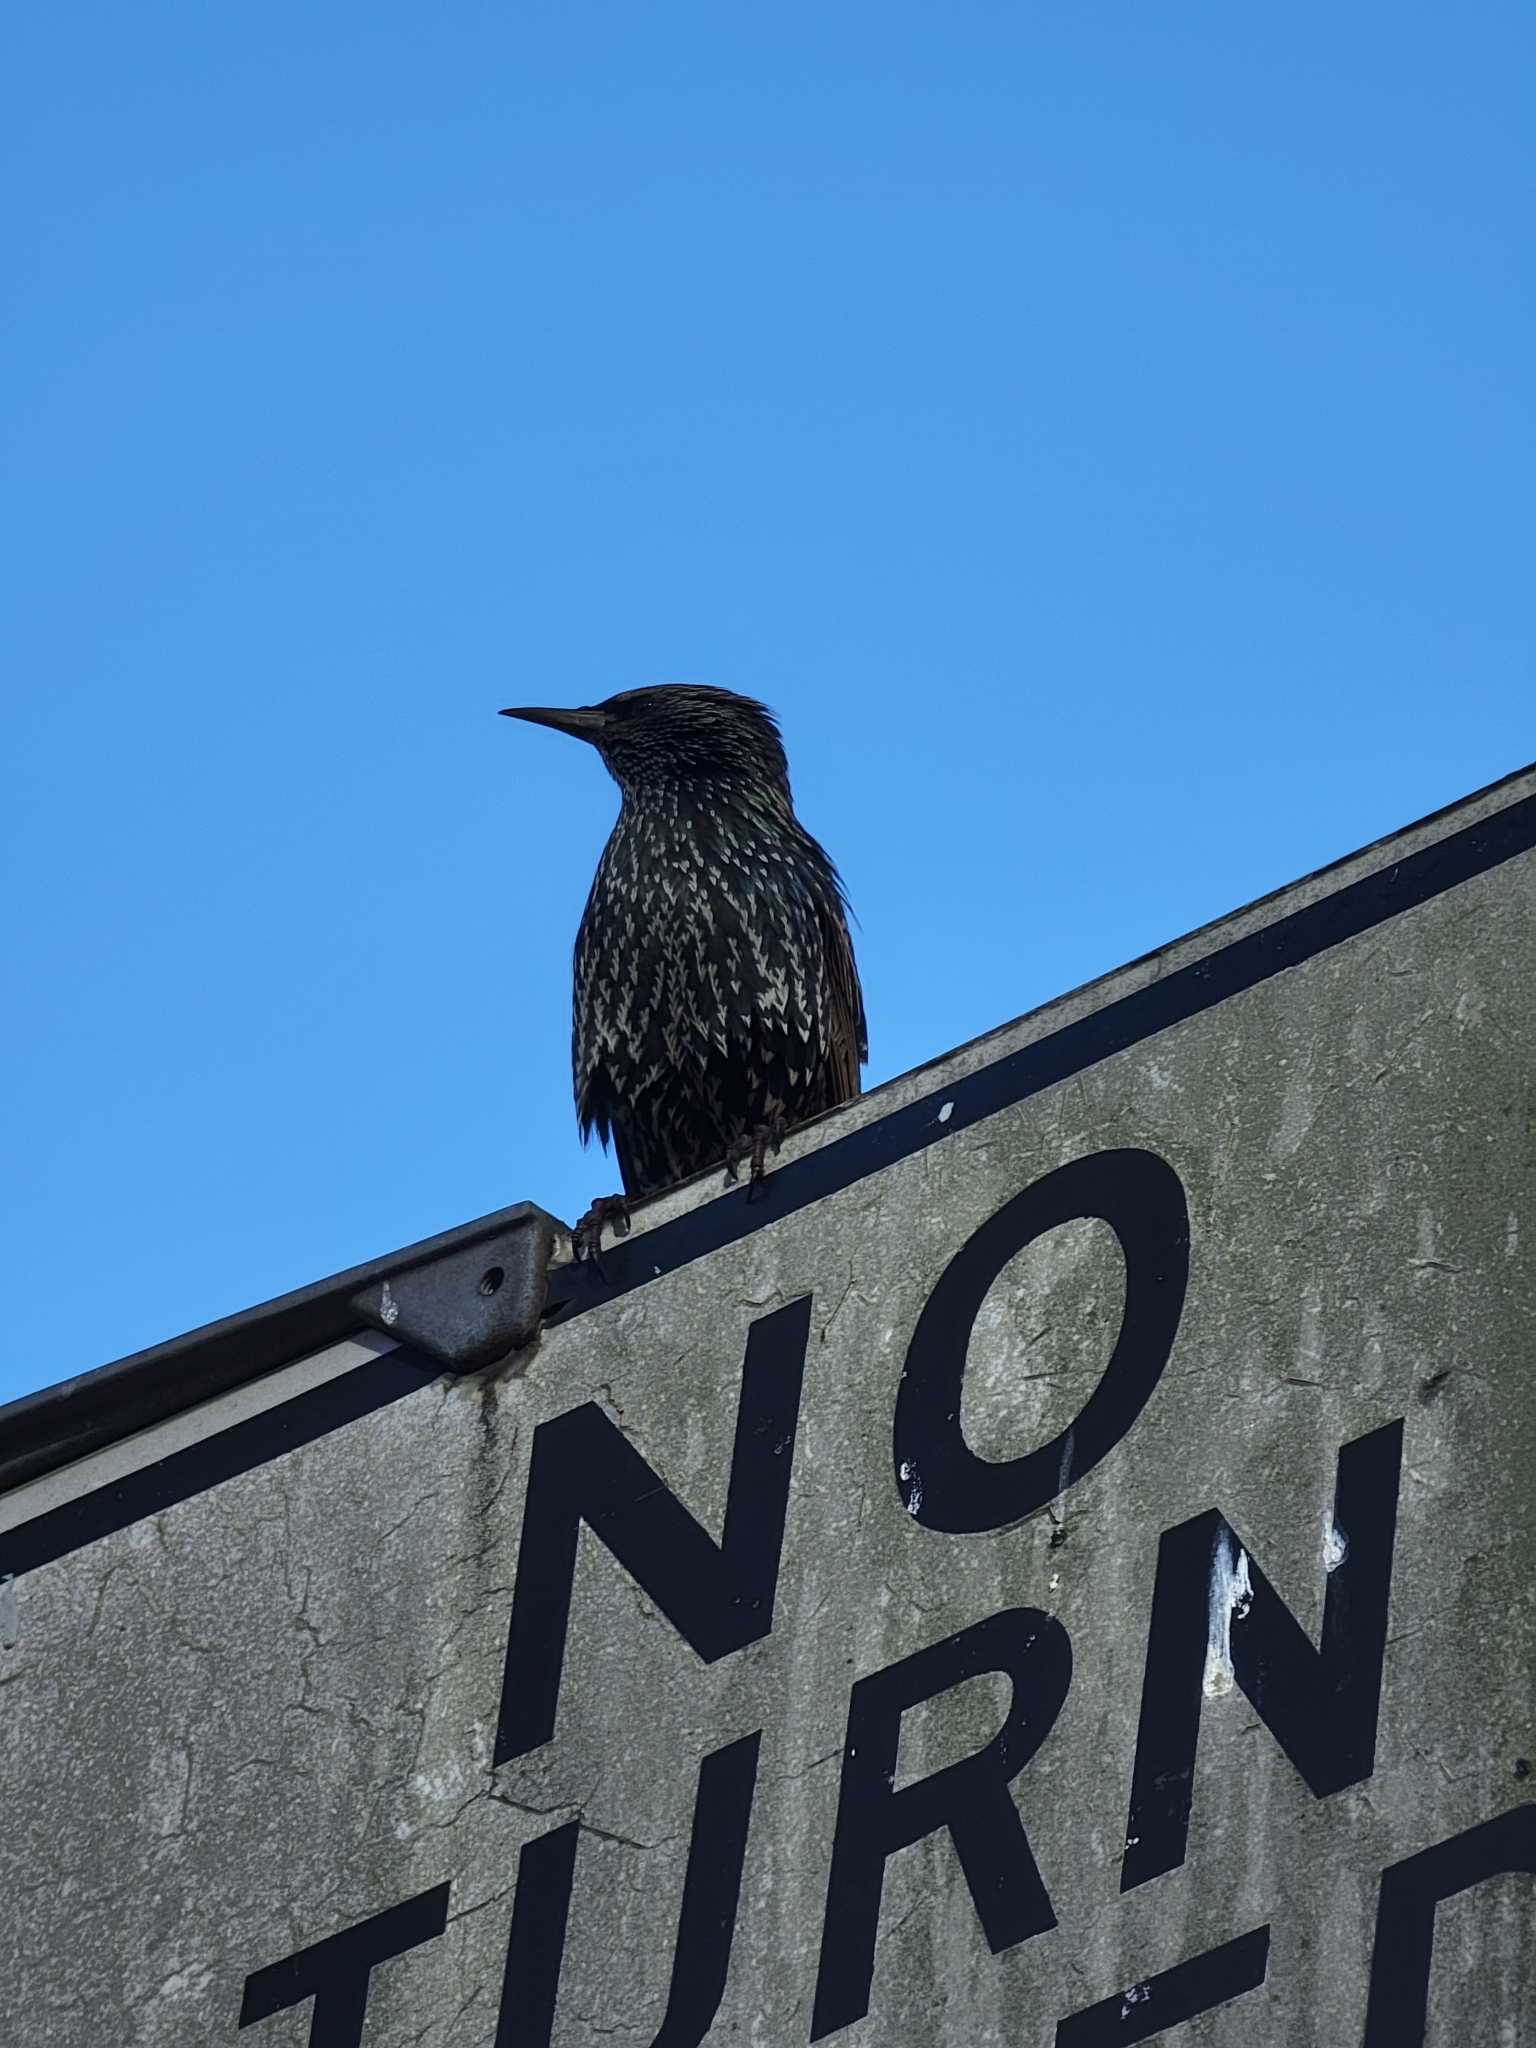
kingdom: Animalia
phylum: Chordata
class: Aves
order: Passeriformes
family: Sturnidae
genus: Sturnus
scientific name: Sturnus vulgaris
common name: Common starling
